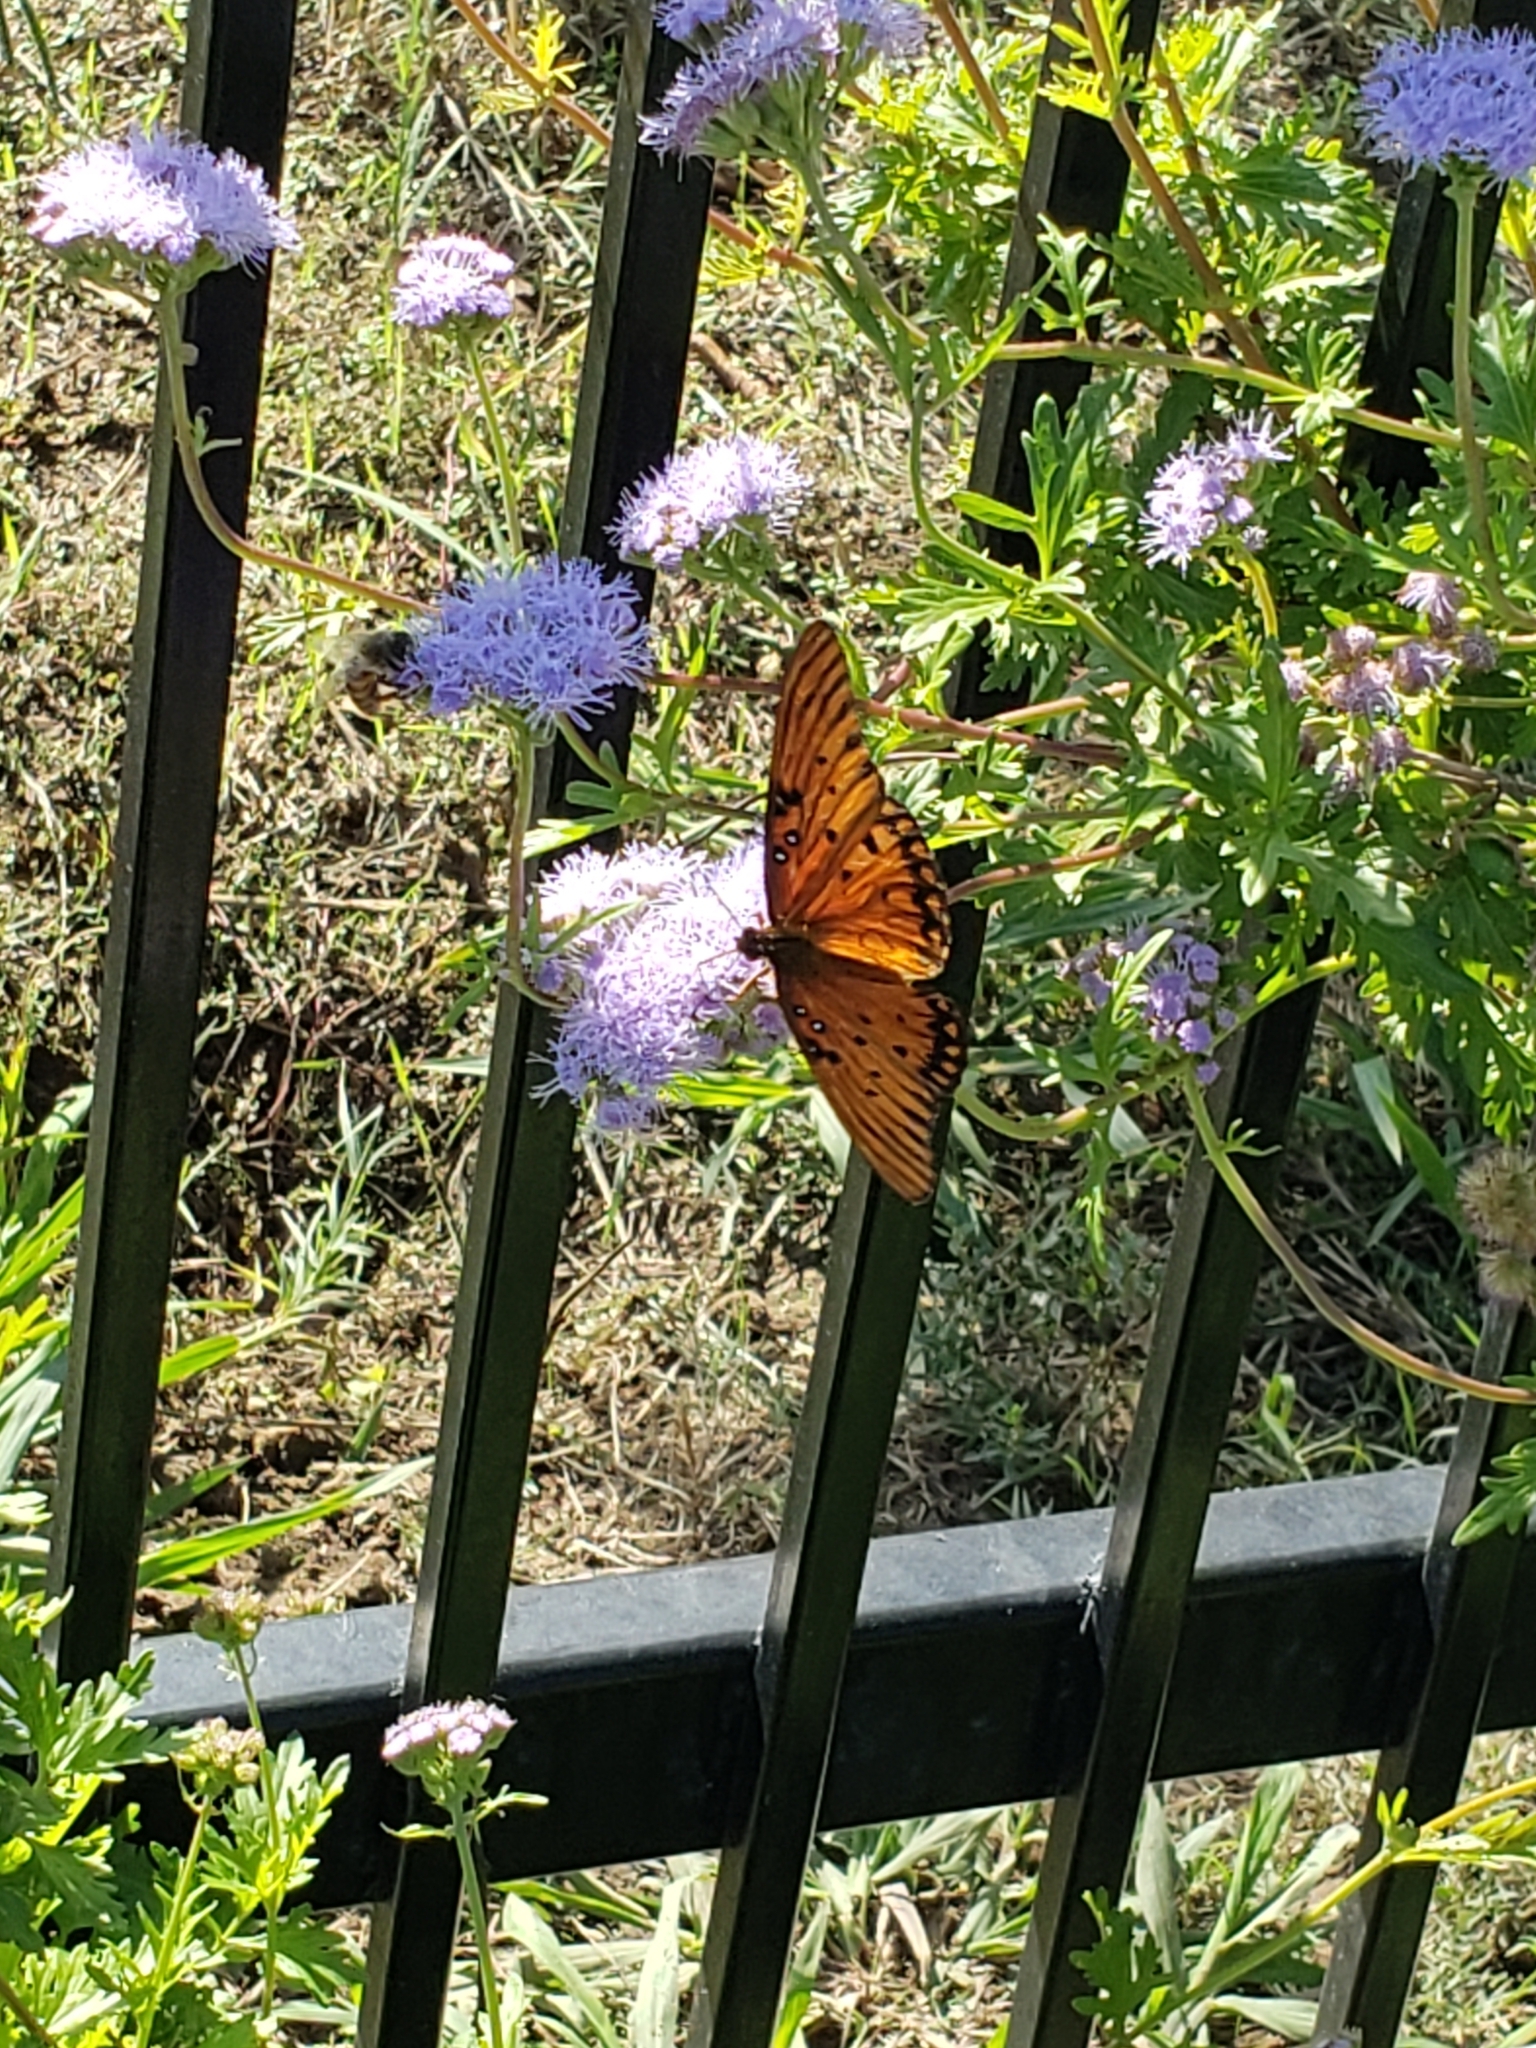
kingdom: Animalia
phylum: Arthropoda
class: Insecta
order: Lepidoptera
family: Nymphalidae
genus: Dione
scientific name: Dione vanillae
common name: Gulf fritillary
